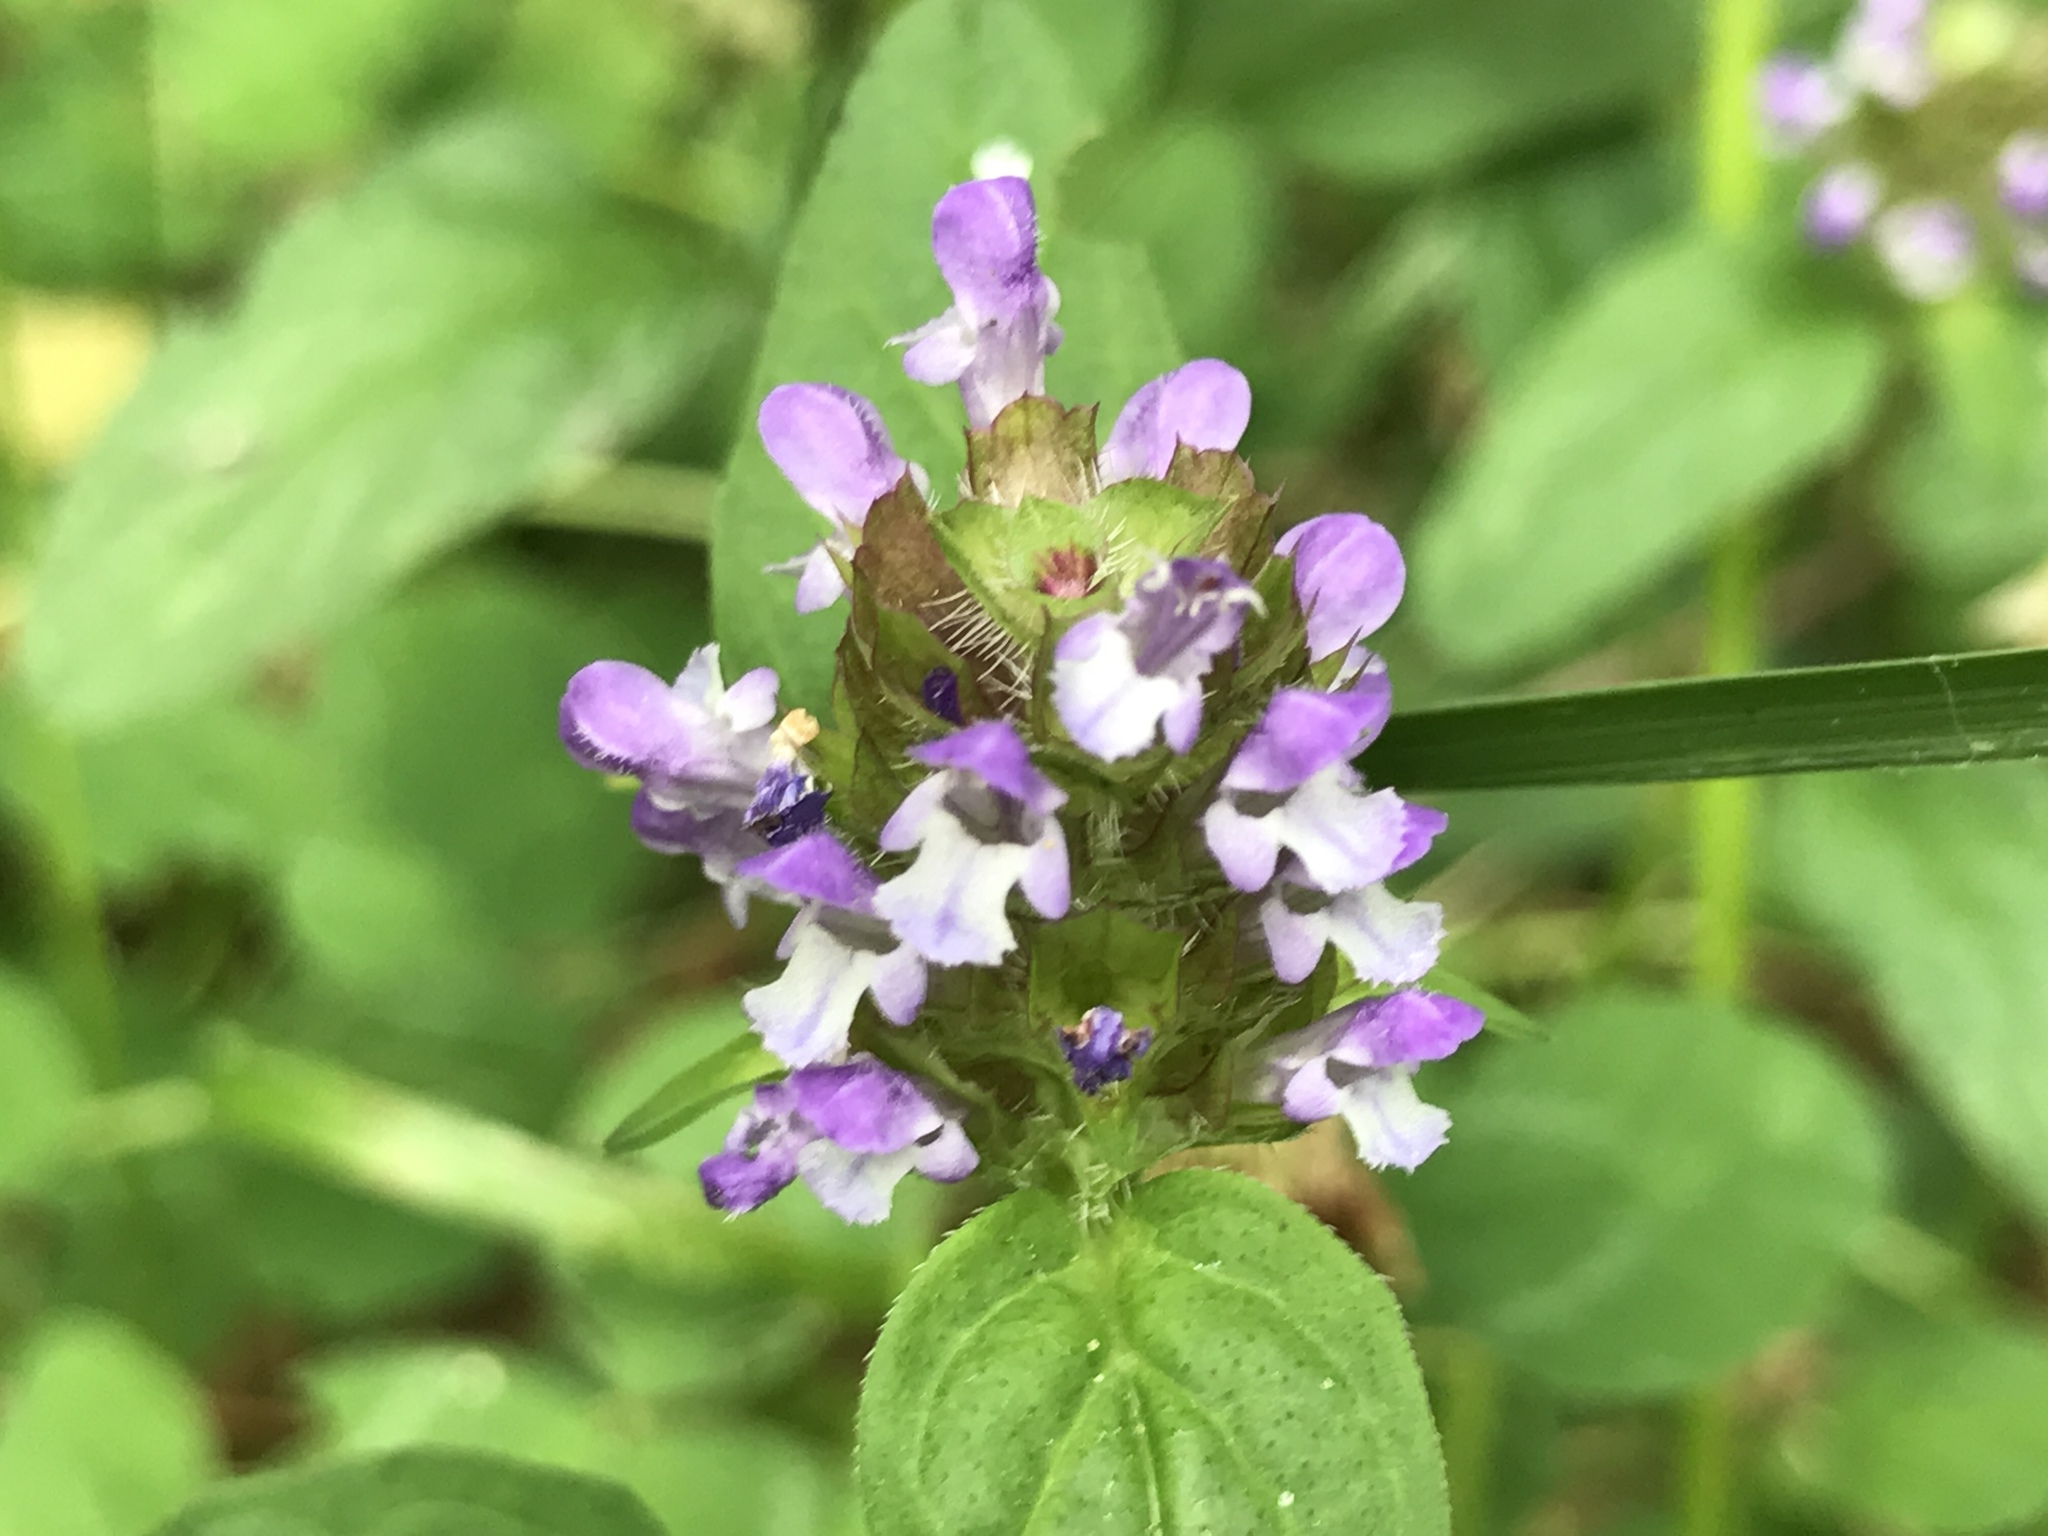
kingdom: Plantae
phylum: Tracheophyta
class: Magnoliopsida
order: Lamiales
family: Lamiaceae
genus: Prunella
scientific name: Prunella vulgaris
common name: Heal-all
